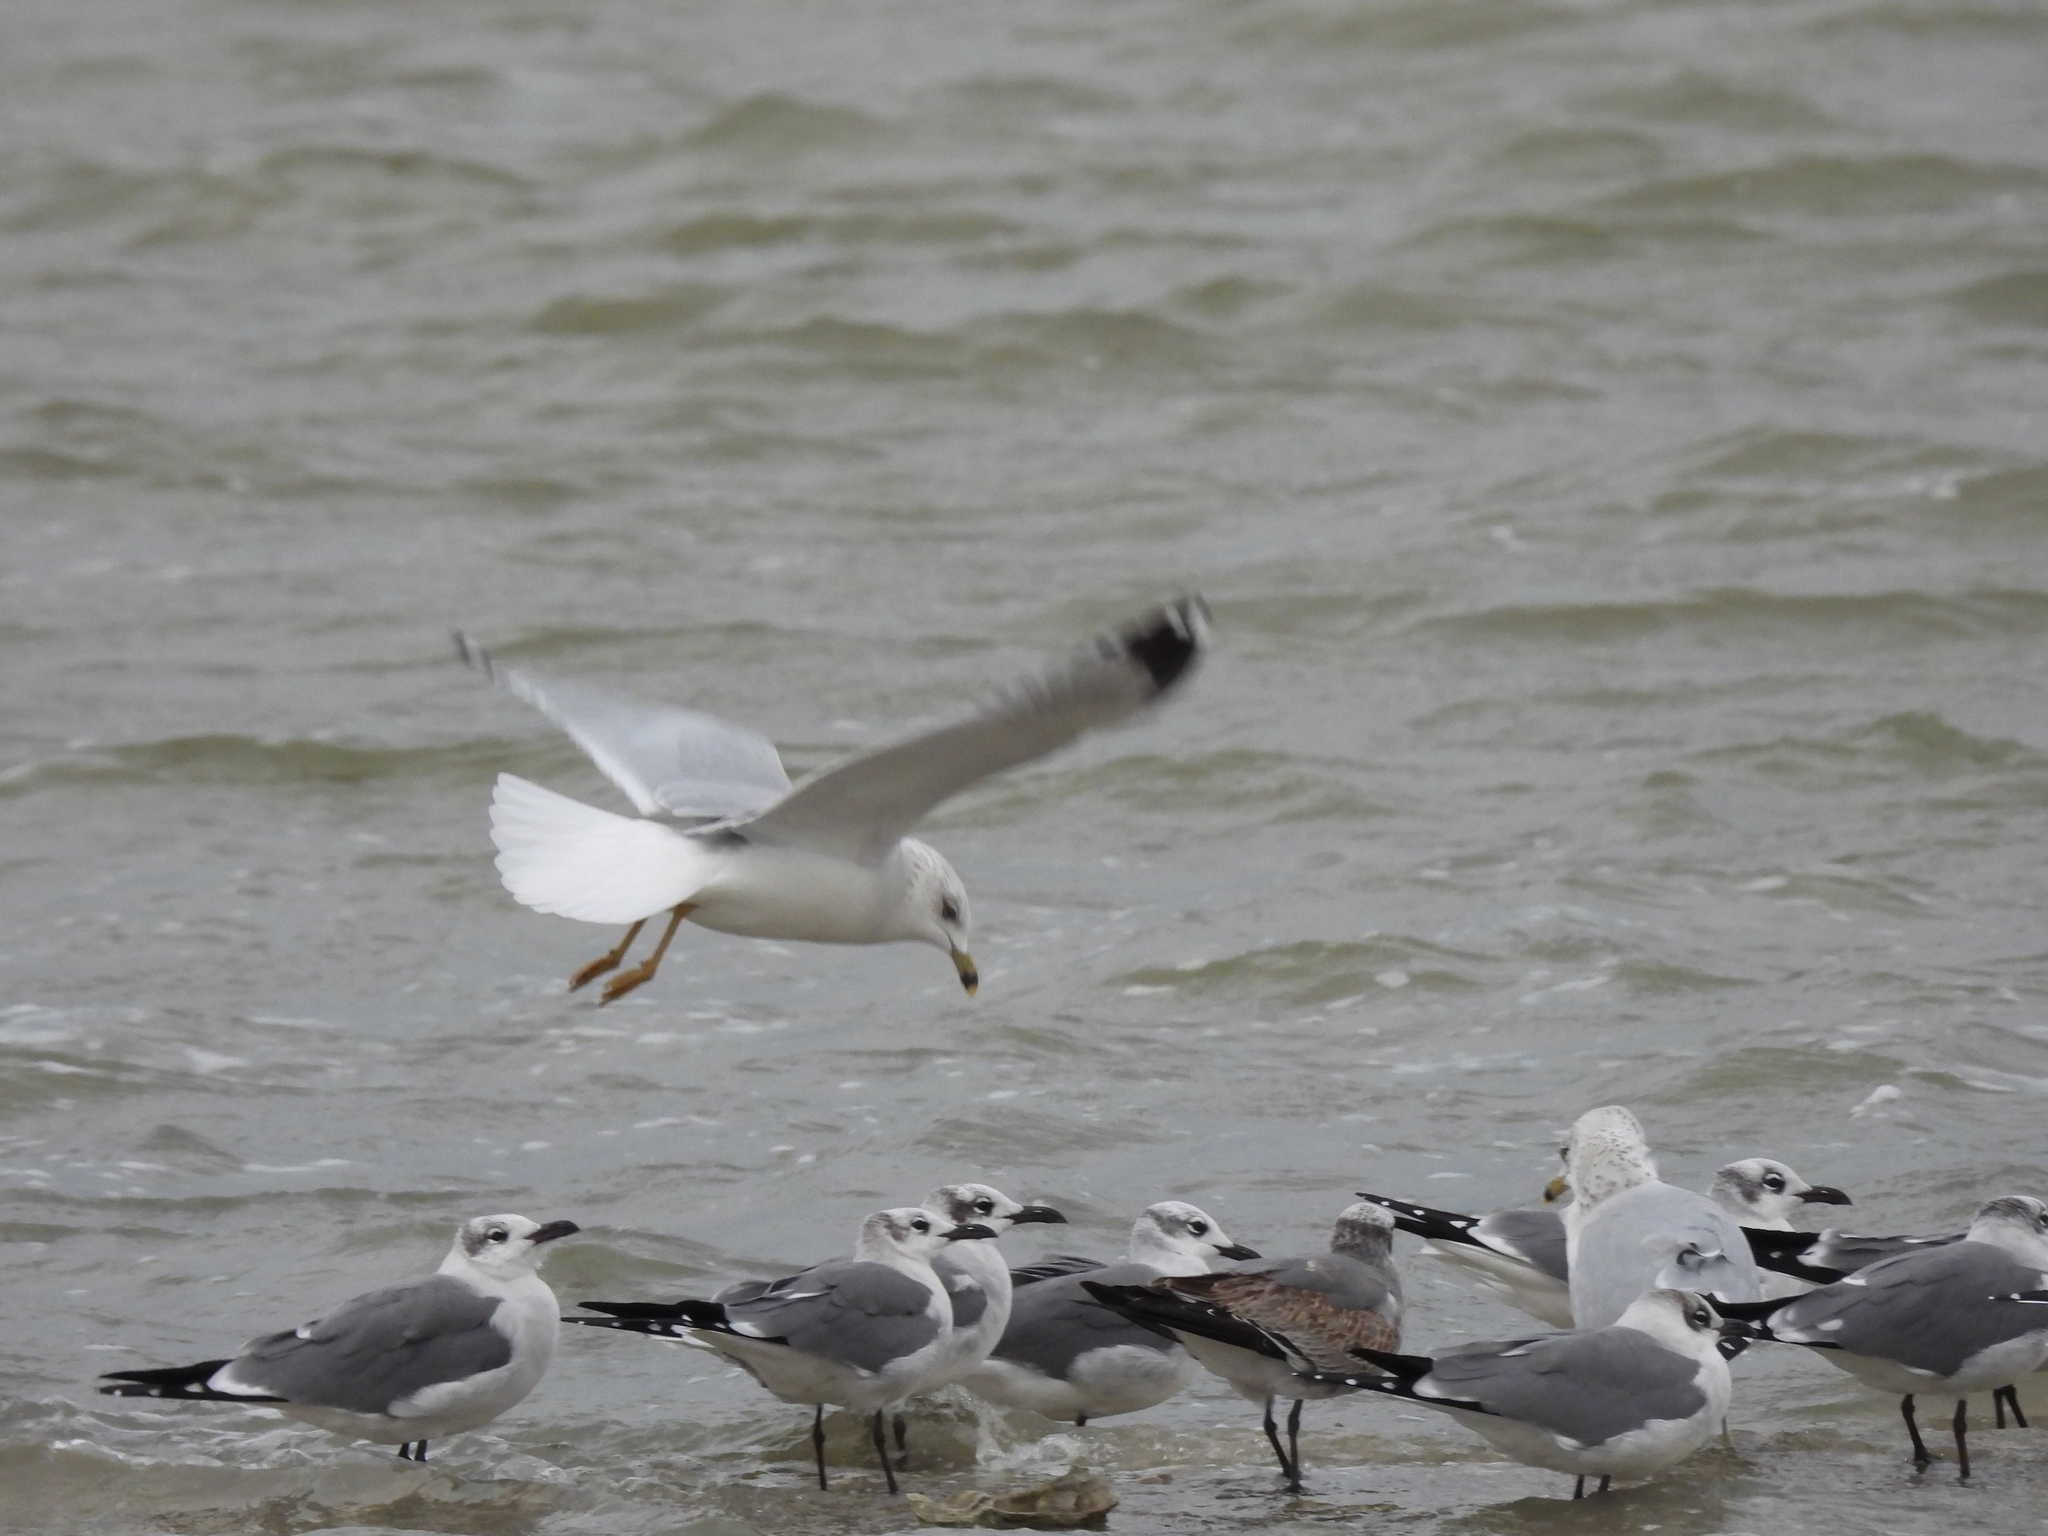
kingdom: Animalia
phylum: Chordata
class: Aves
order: Charadriiformes
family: Laridae
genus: Larus
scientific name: Larus delawarensis
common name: Ring-billed gull
